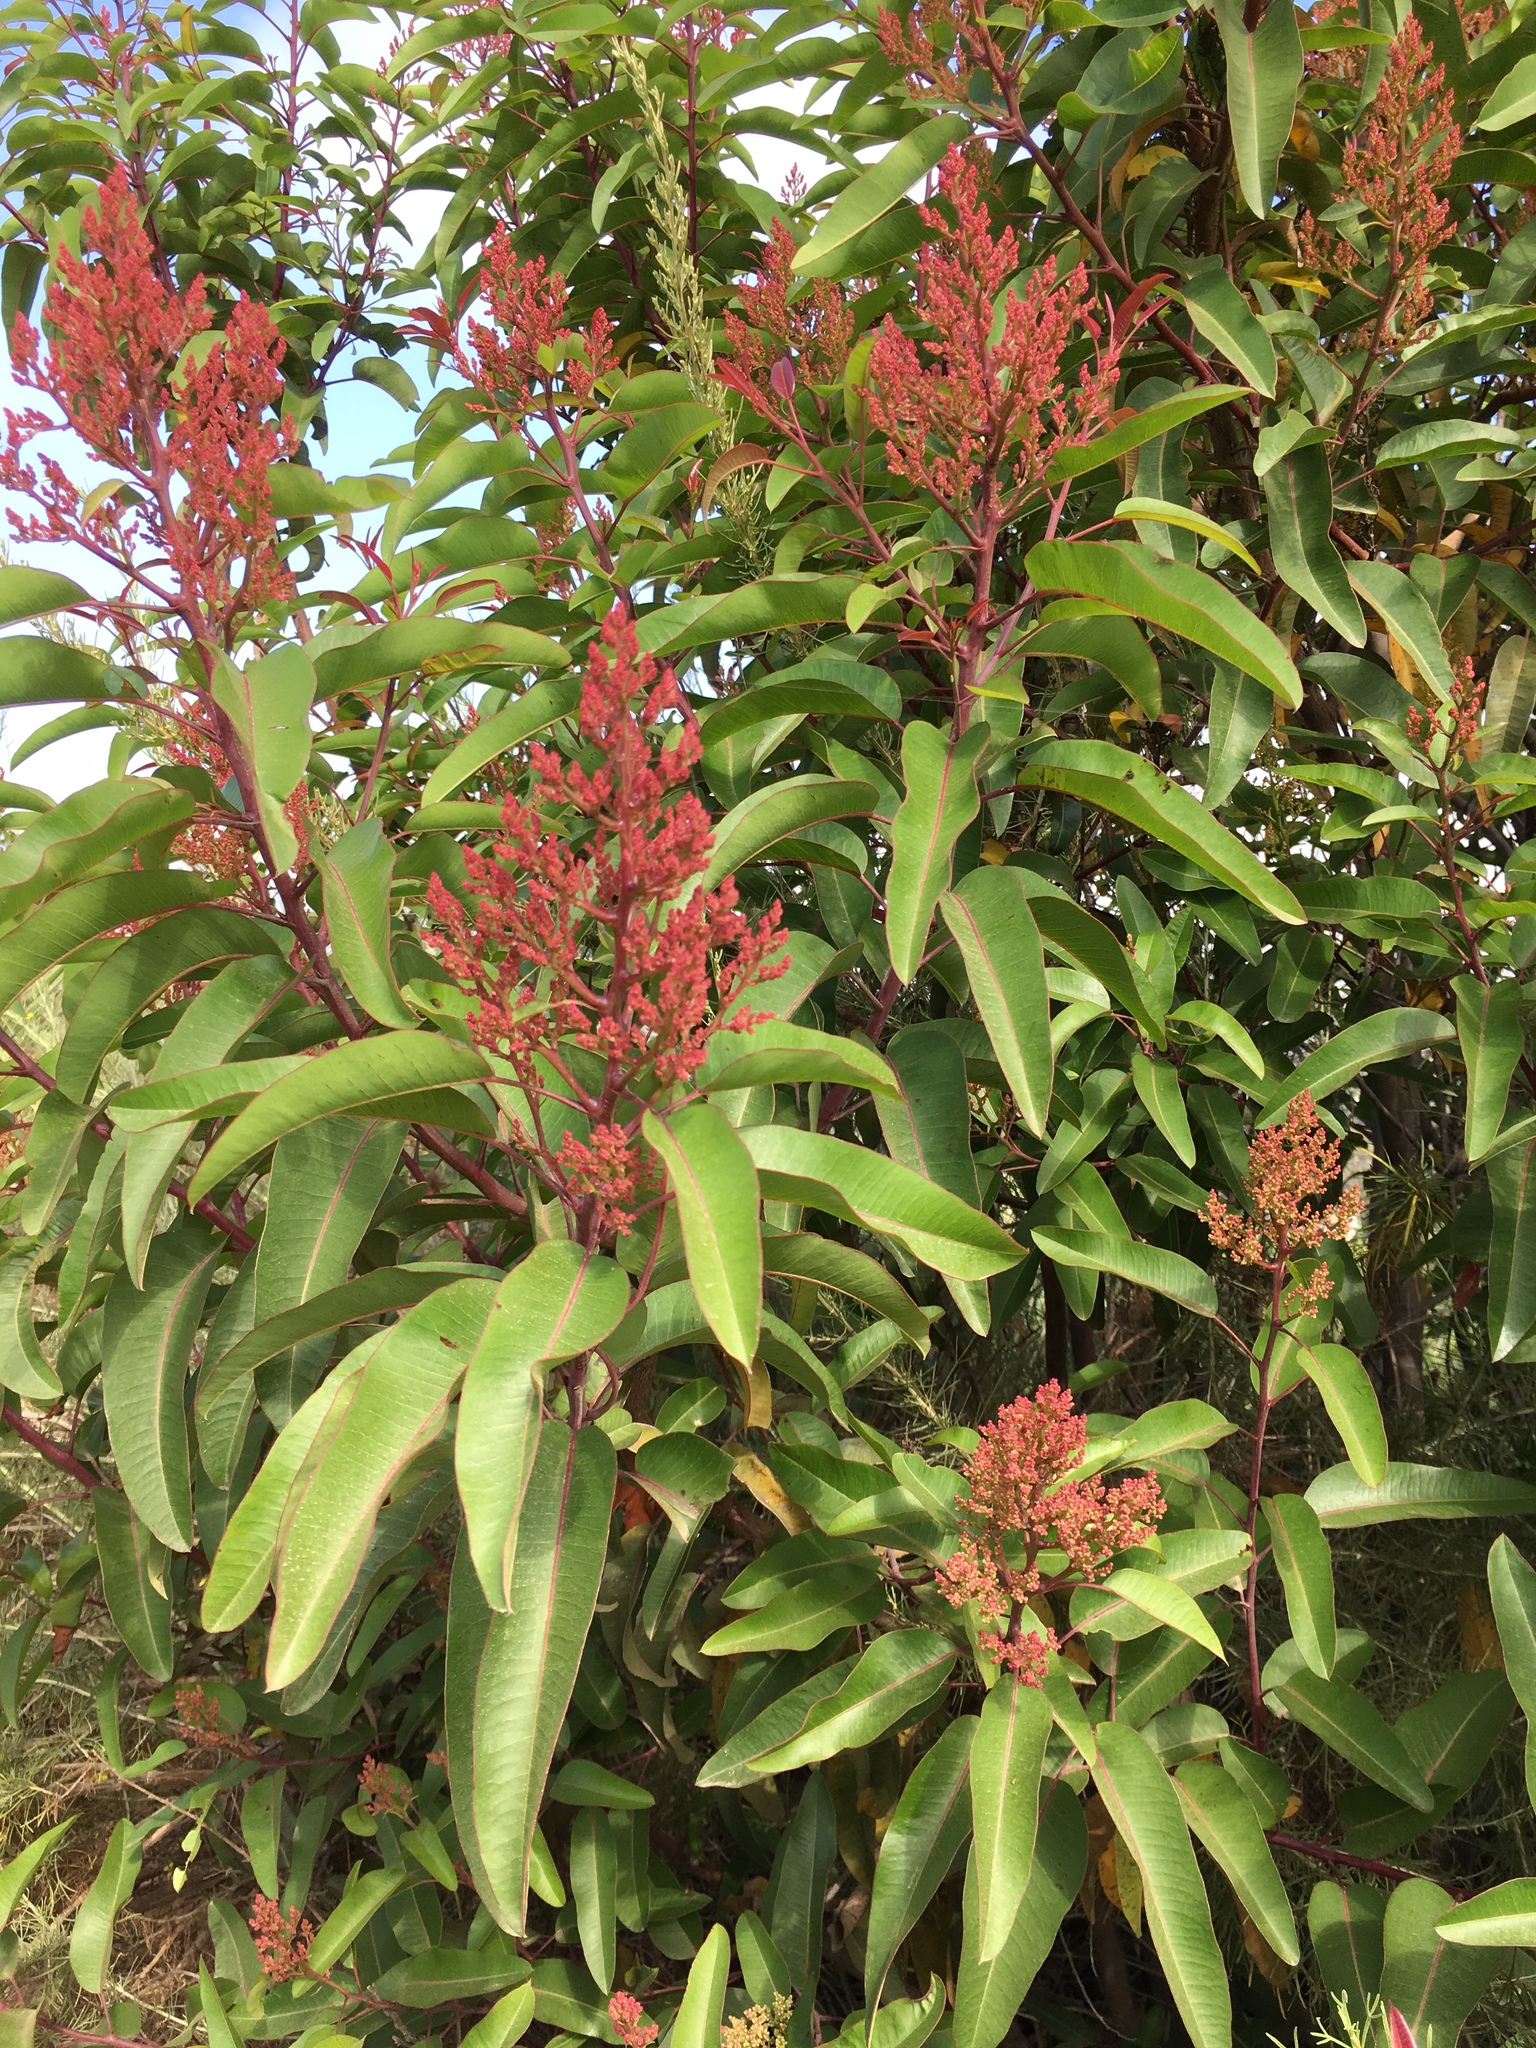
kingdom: Plantae
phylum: Tracheophyta
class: Magnoliopsida
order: Sapindales
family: Anacardiaceae
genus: Malosma
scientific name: Malosma laurina
